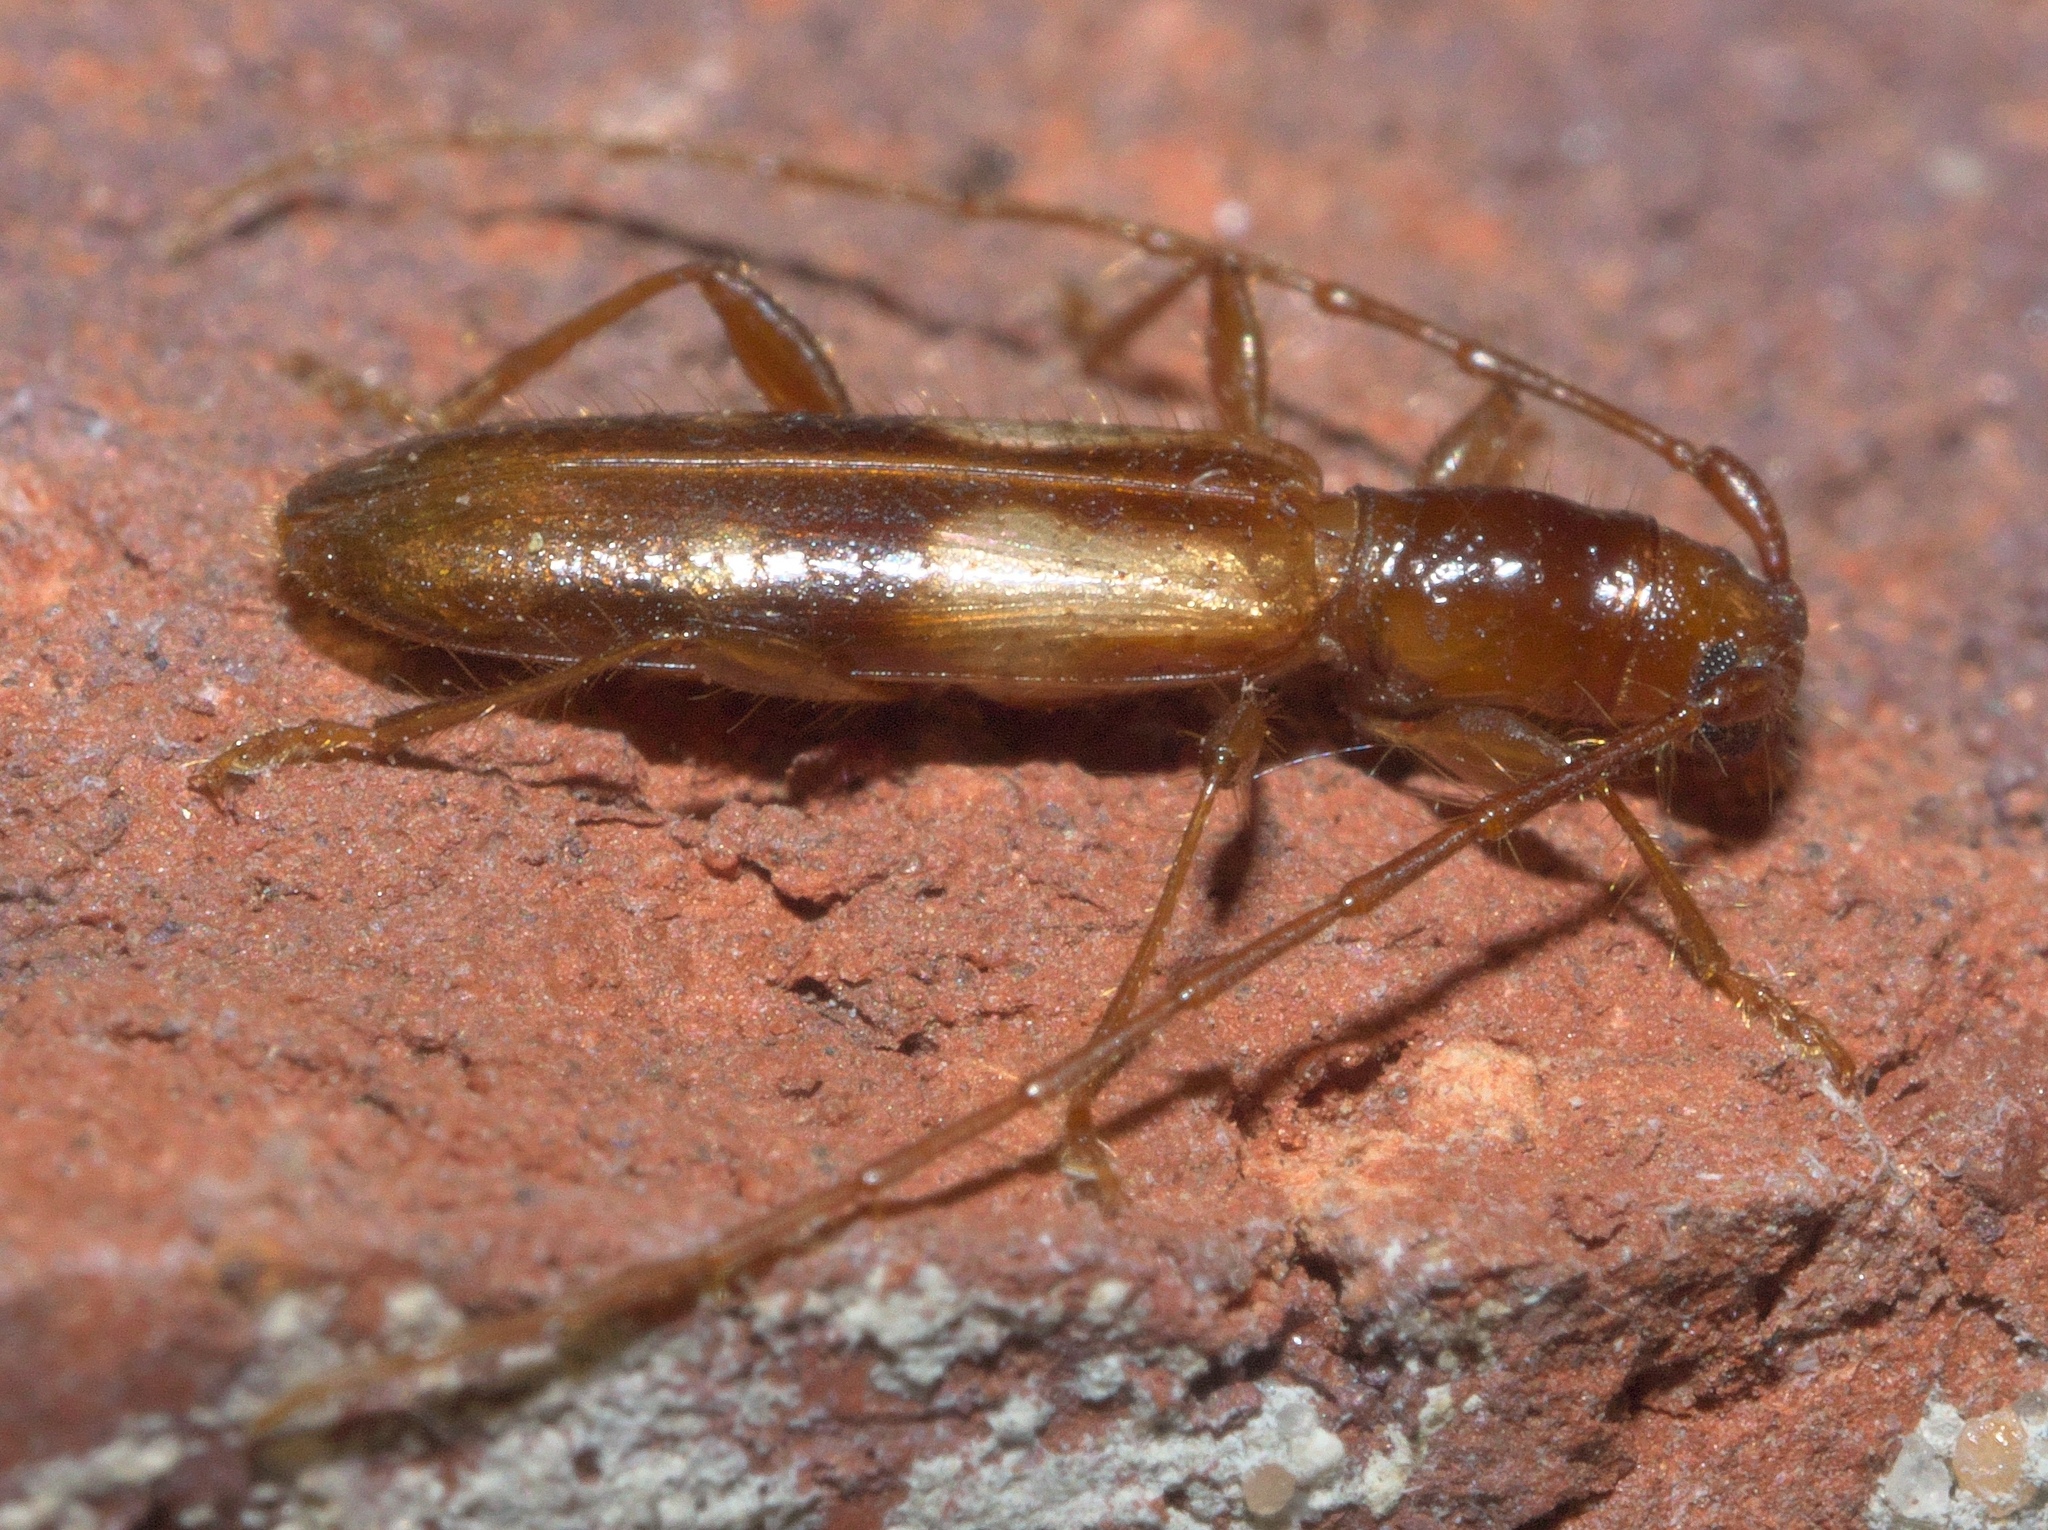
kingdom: Animalia
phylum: Arthropoda
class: Insecta
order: Coleoptera
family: Cerambycidae
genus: Heterachthes
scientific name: Heterachthes quadrimaculatus
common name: Four-spotted hickory borer
